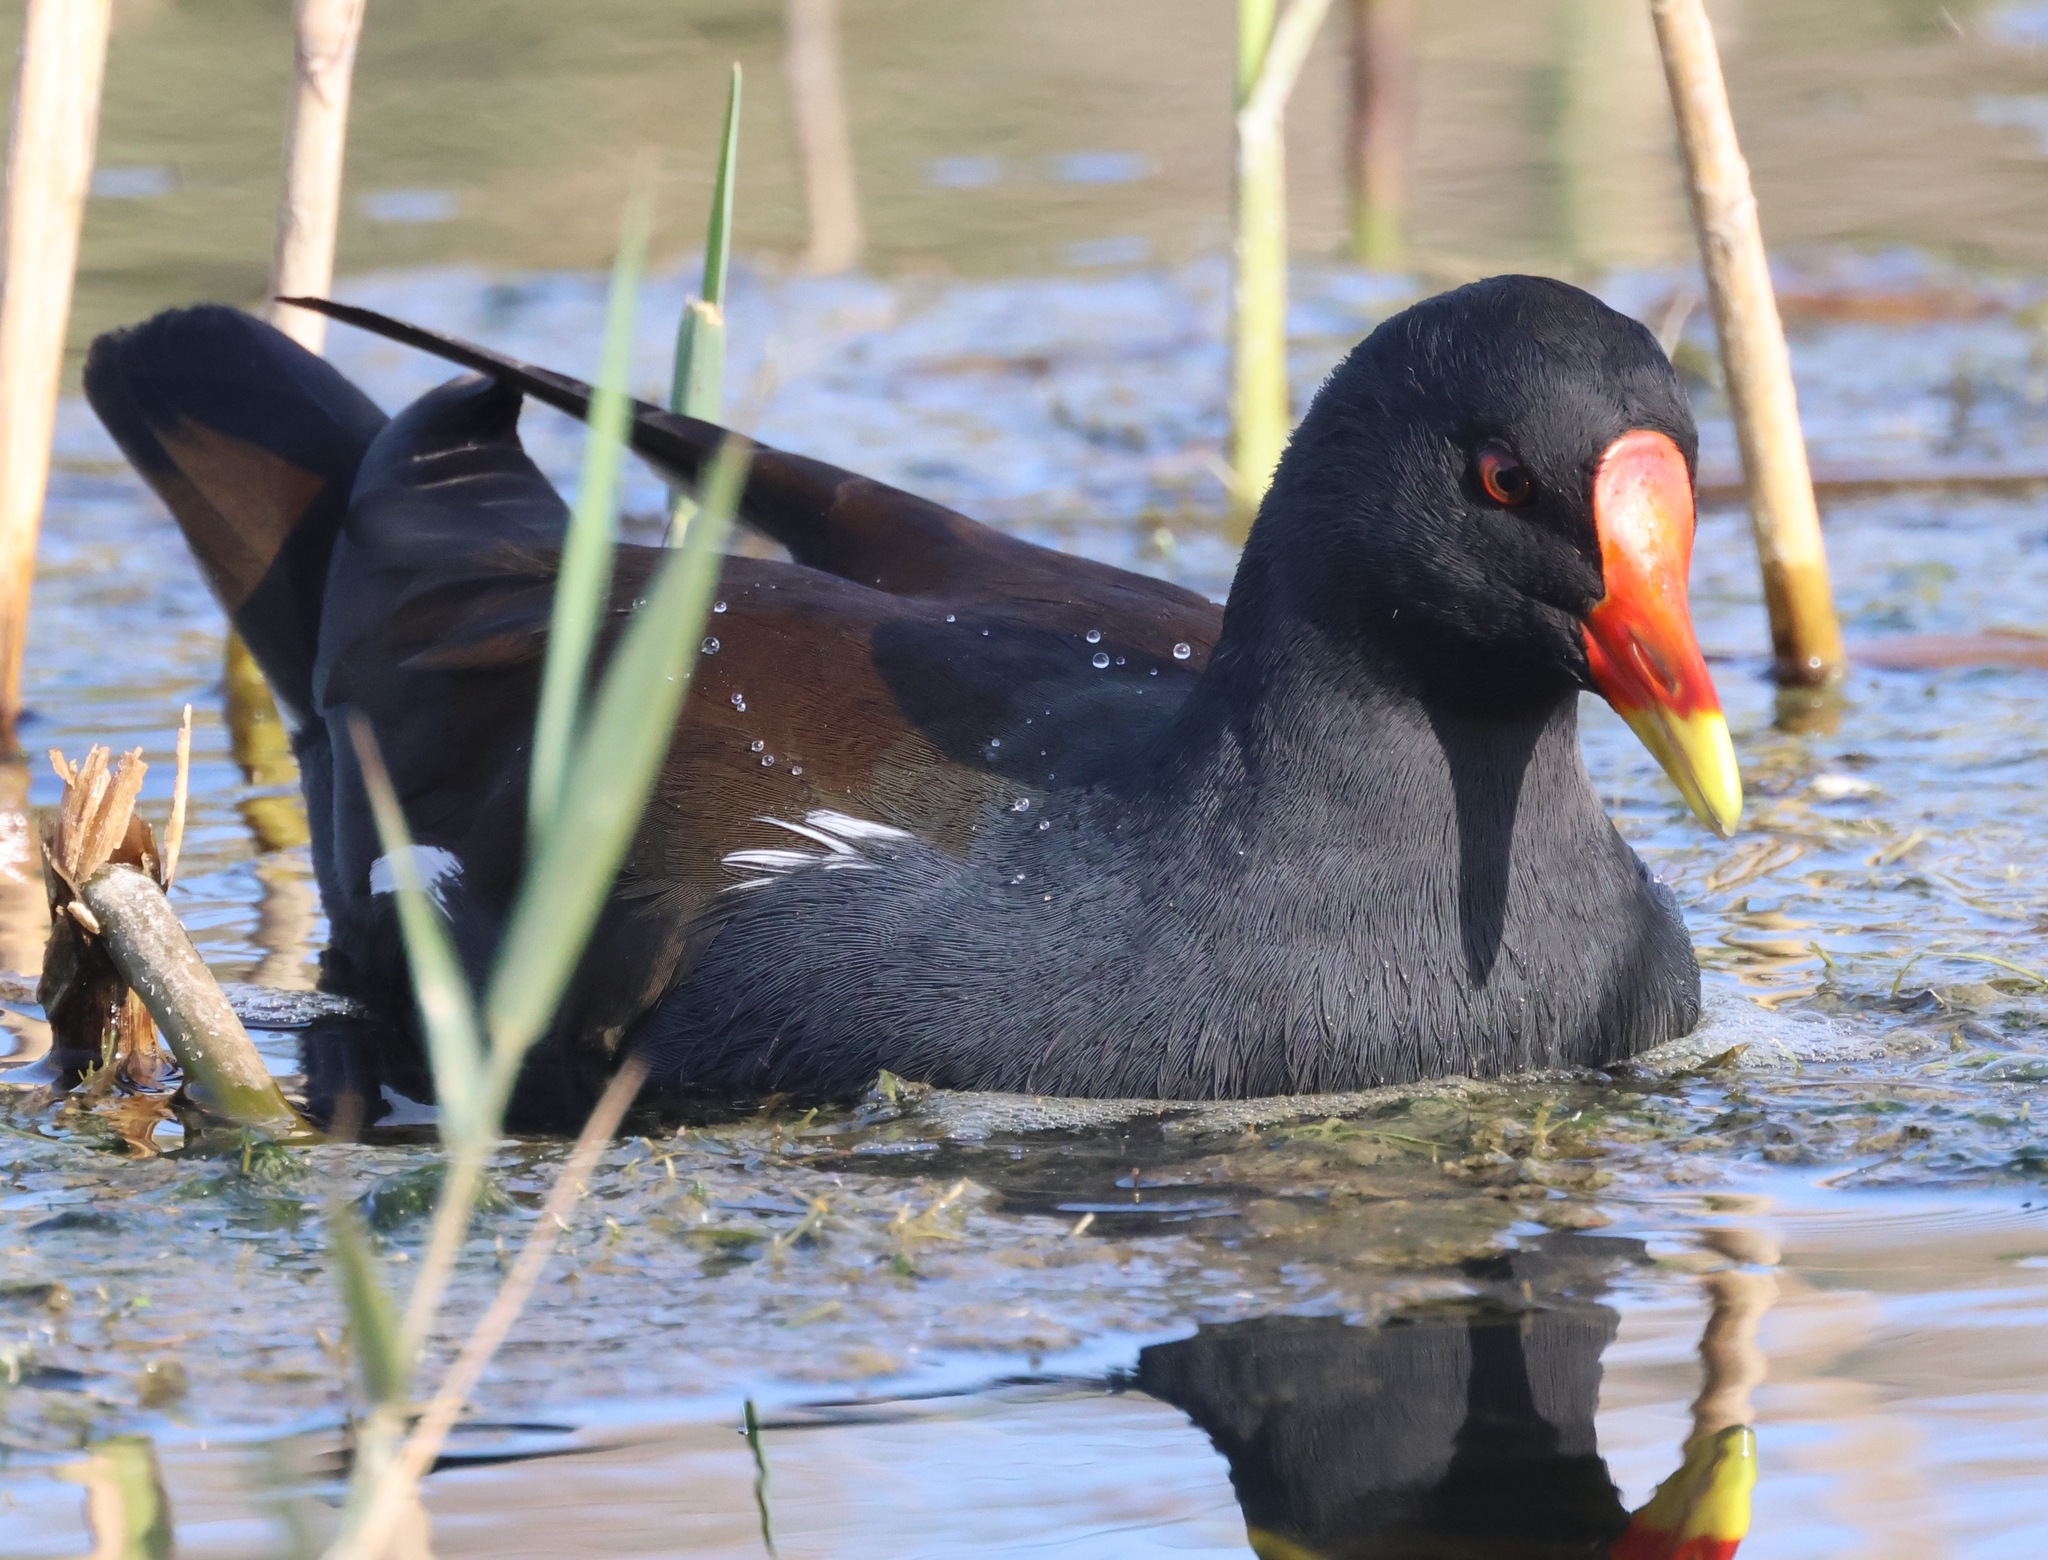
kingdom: Animalia
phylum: Chordata
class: Aves
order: Gruiformes
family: Rallidae
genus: Gallinula
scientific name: Gallinula chloropus
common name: Common moorhen
